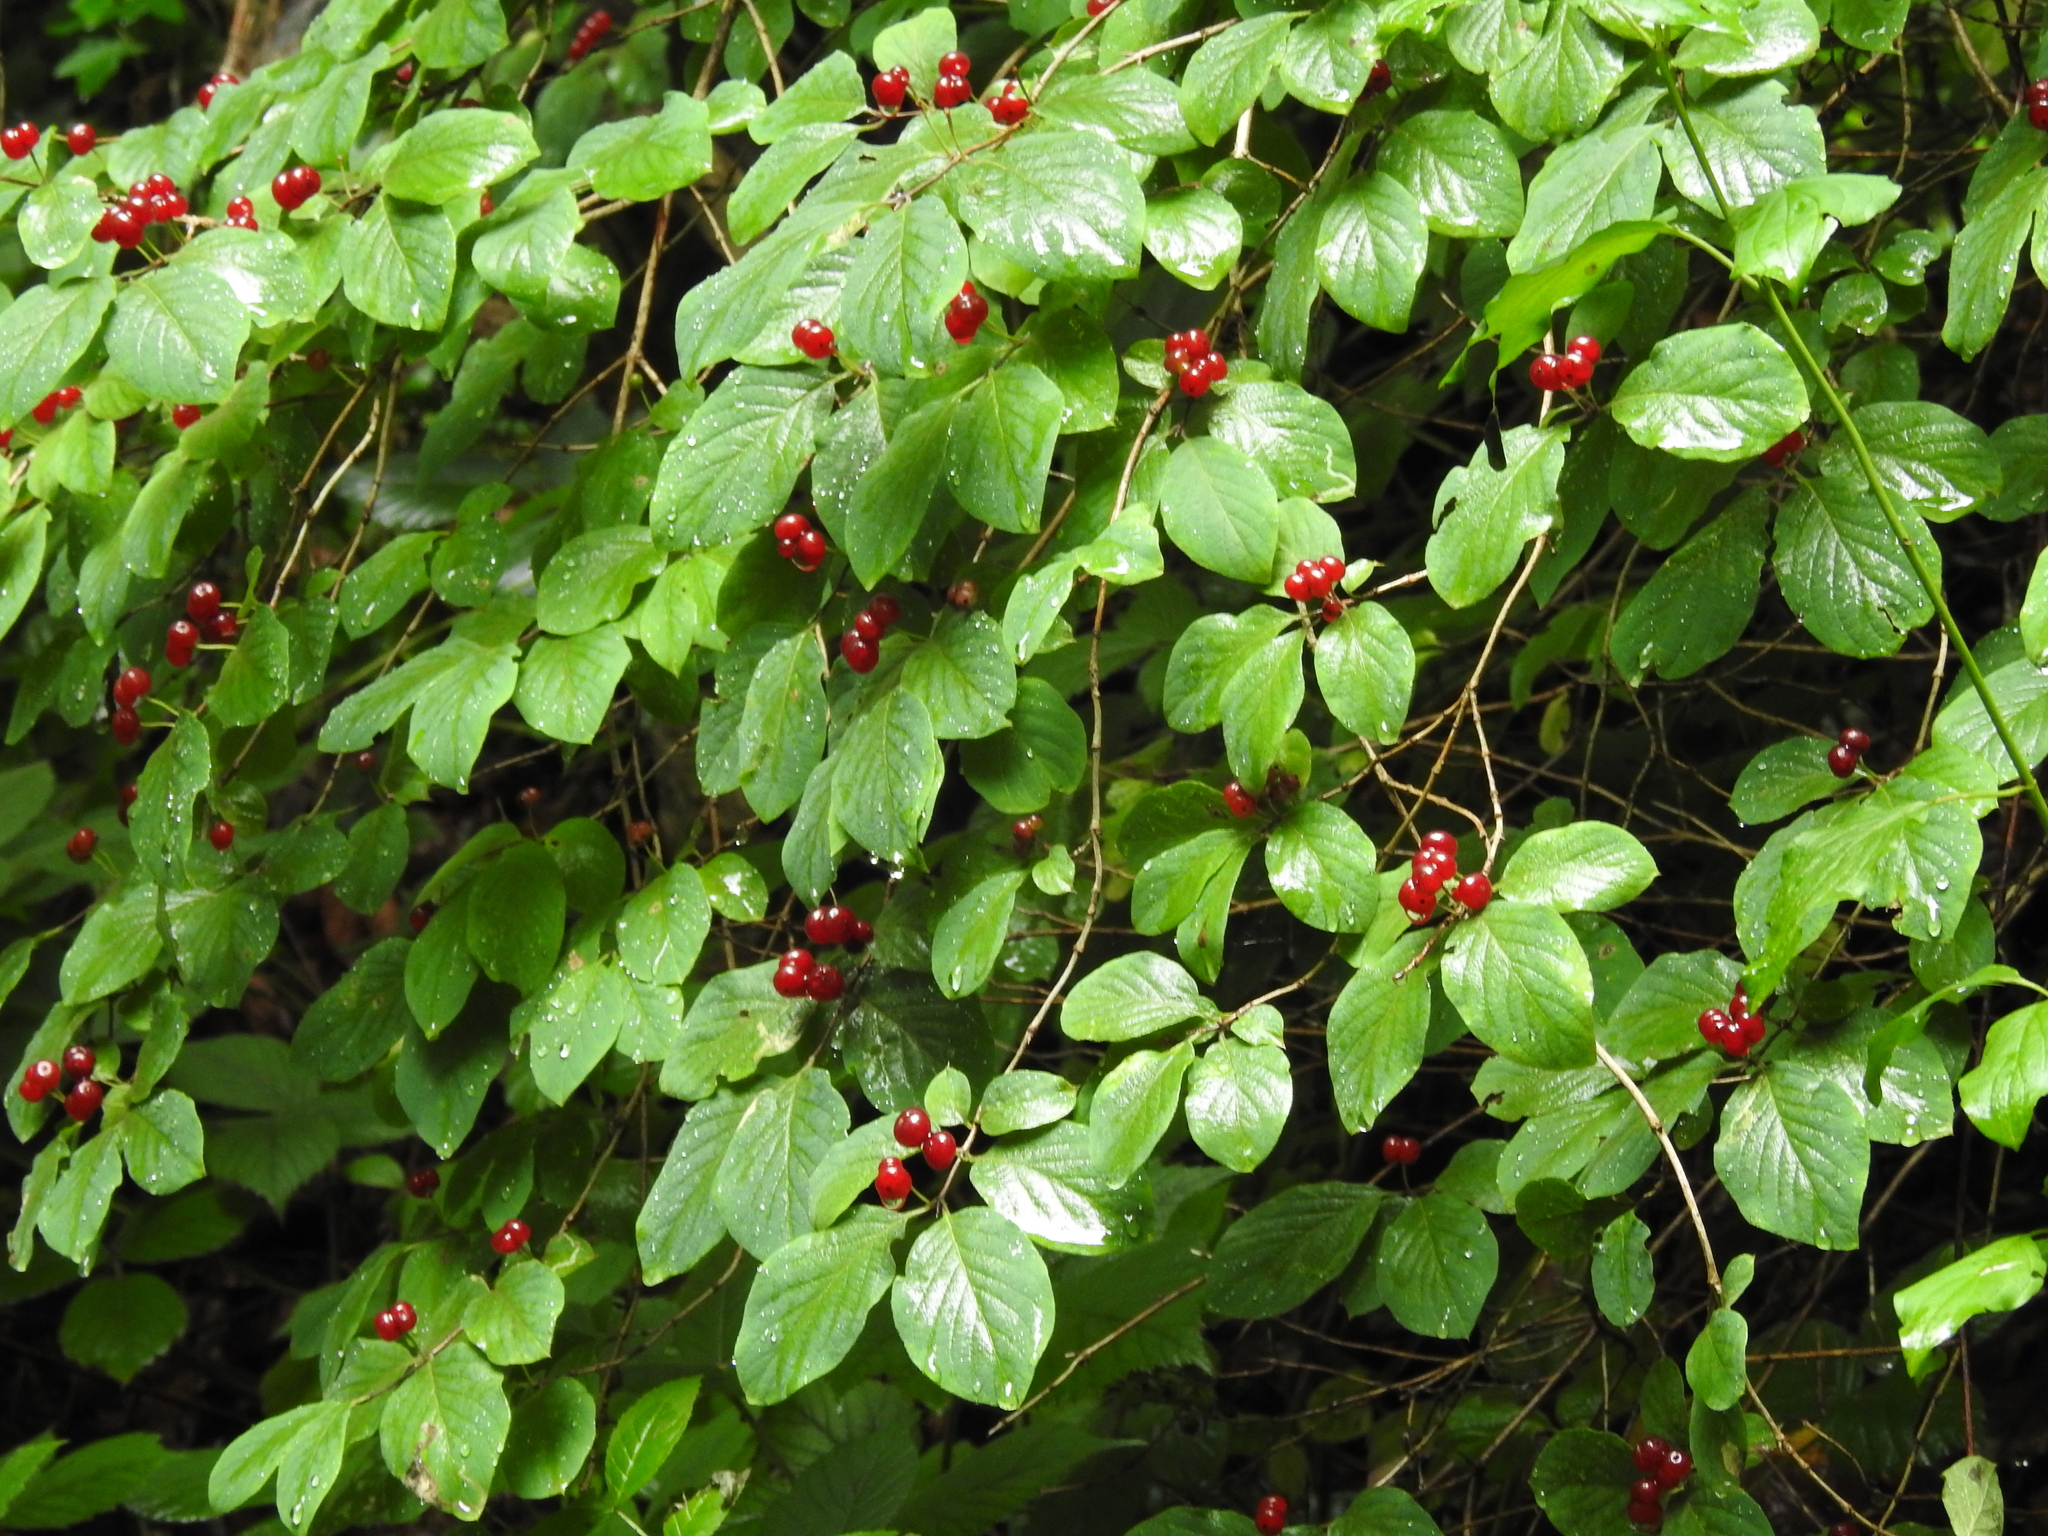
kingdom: Plantae
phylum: Tracheophyta
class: Magnoliopsida
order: Dipsacales
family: Caprifoliaceae
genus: Lonicera
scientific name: Lonicera xylosteum
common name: Fly honeysuckle
